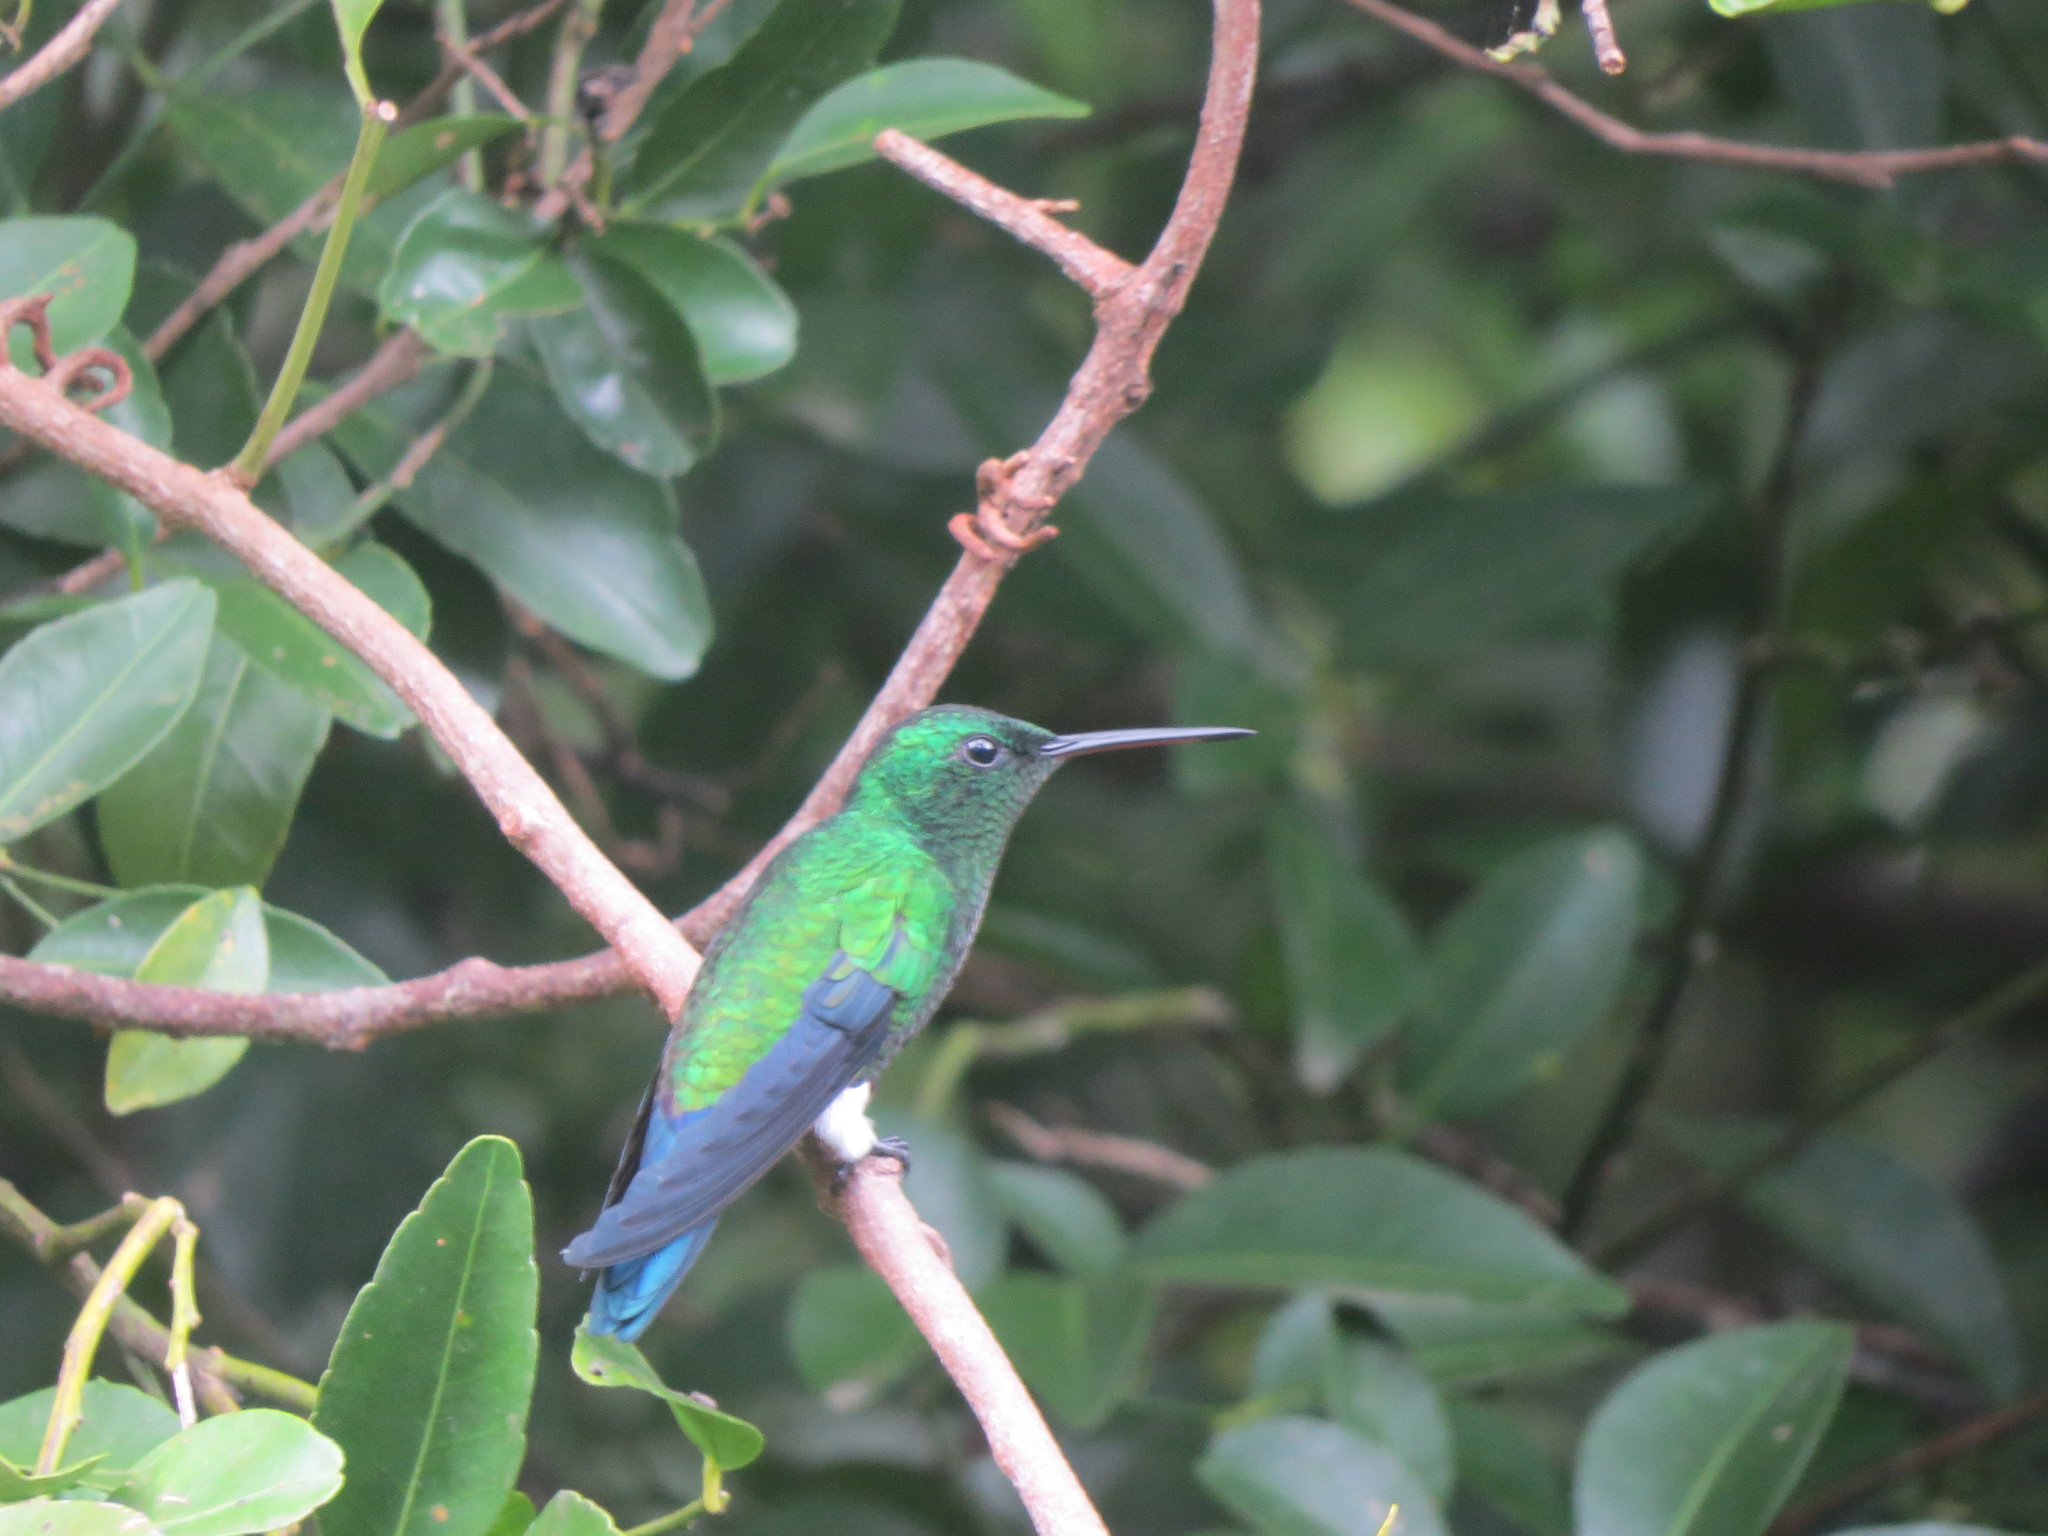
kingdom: Animalia
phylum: Chordata
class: Aves
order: Apodiformes
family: Trochilidae
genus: Saucerottia
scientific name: Saucerottia saucerottei
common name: Steely-vented hummingbird
